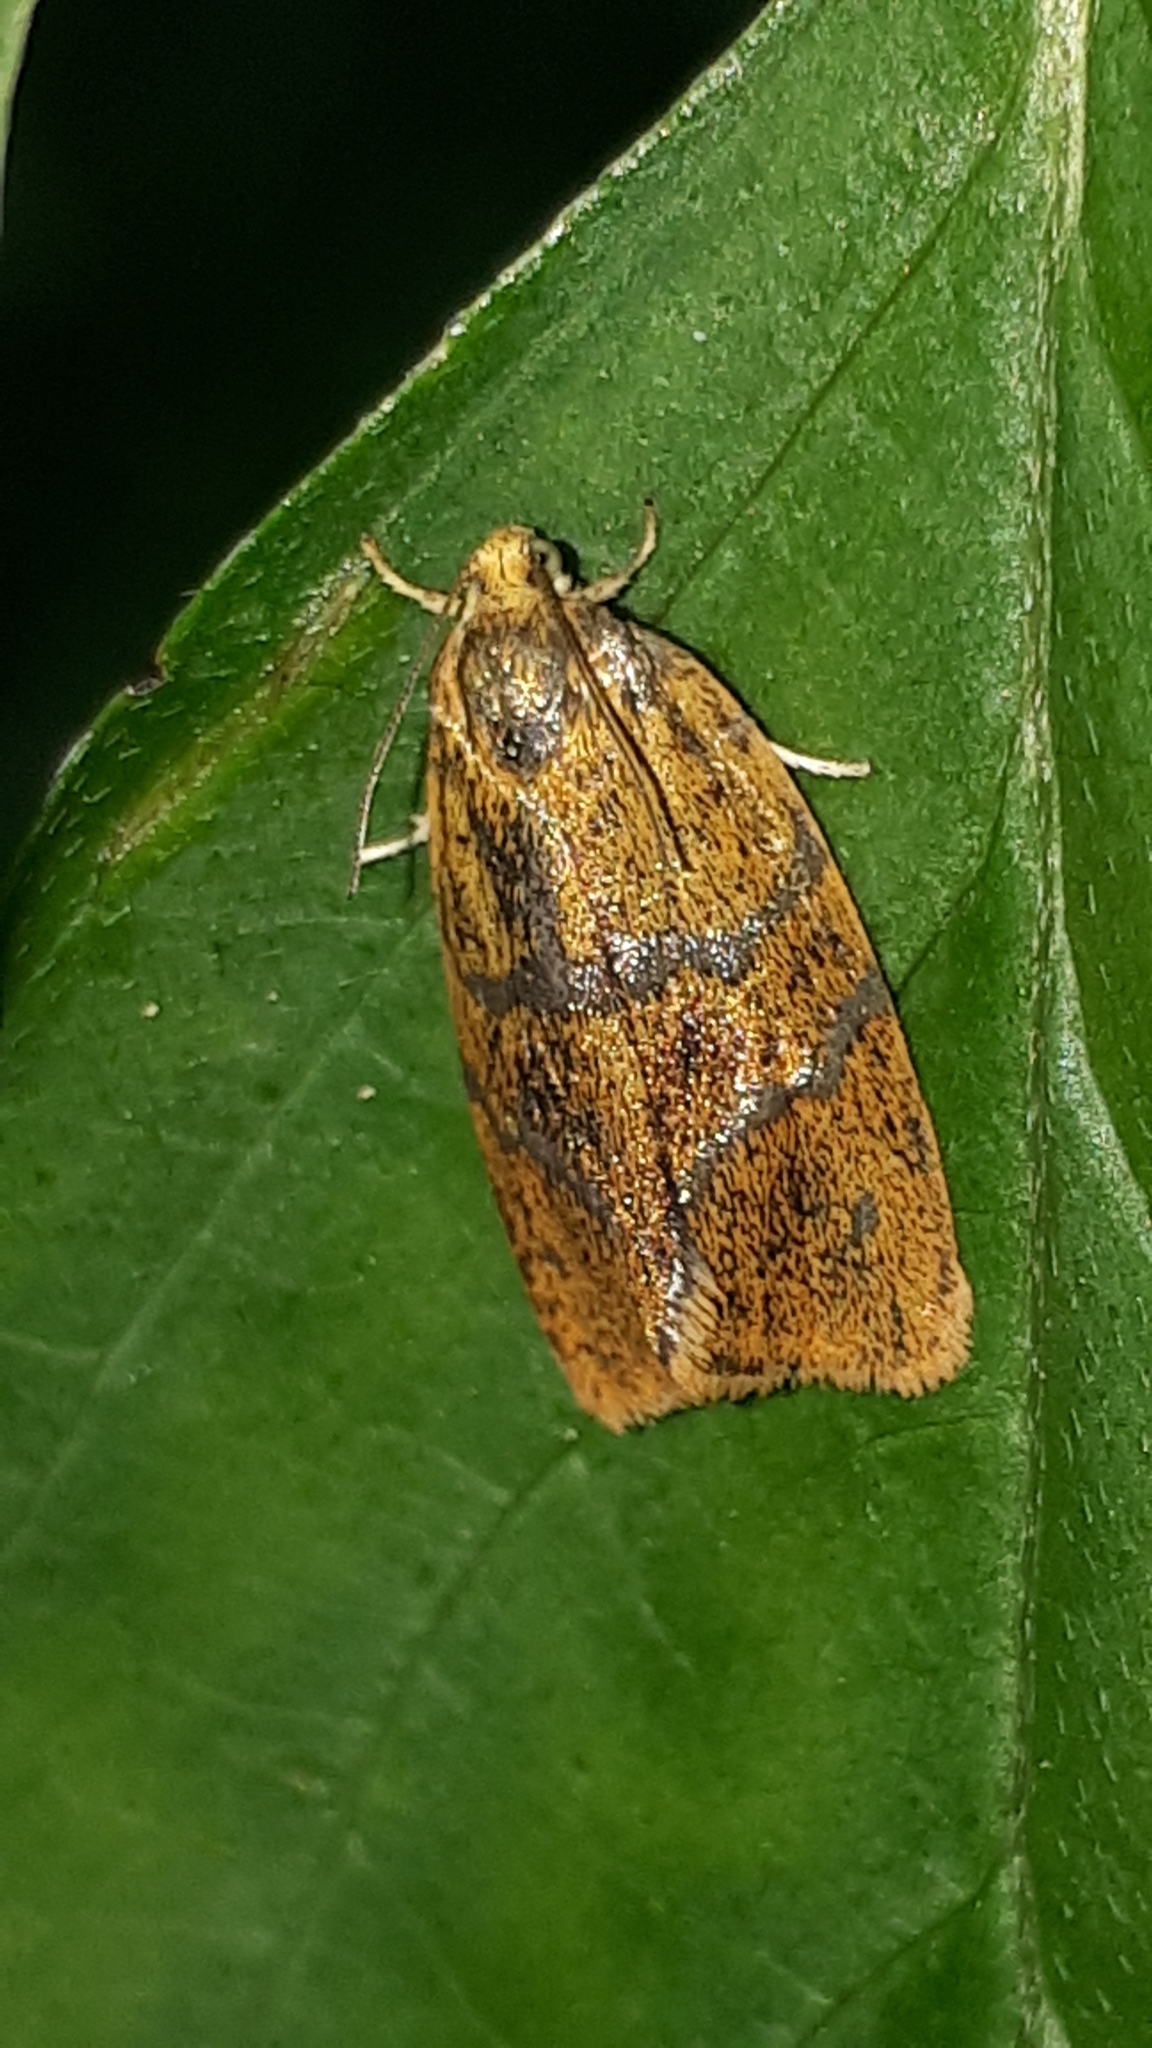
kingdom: Animalia
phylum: Arthropoda
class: Insecta
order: Lepidoptera
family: Tortricidae
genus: Ptycholoma
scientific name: Ptycholoma lecheana
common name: Leches twist moth
